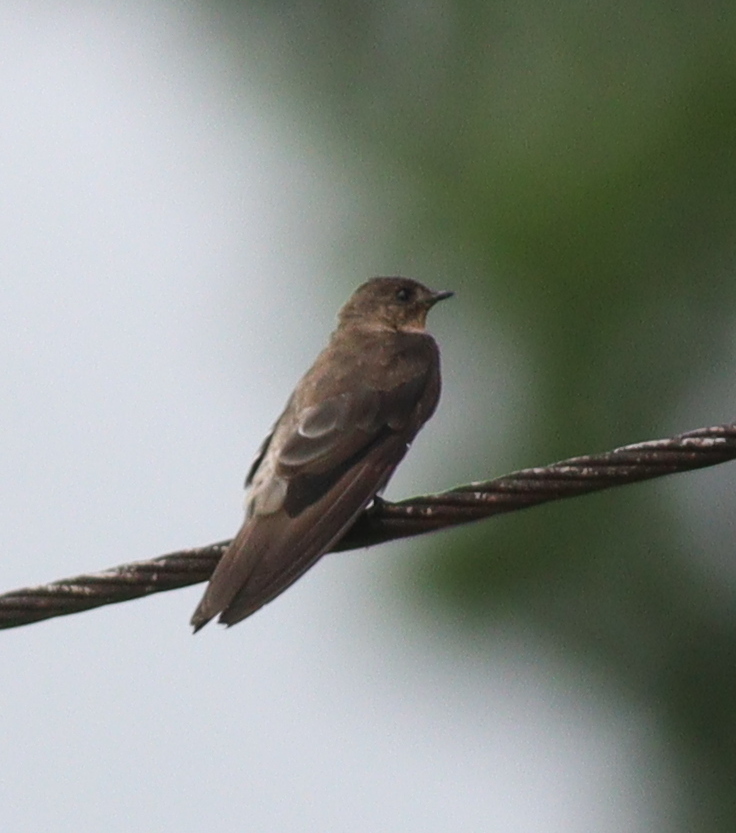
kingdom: Animalia
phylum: Chordata
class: Aves
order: Passeriformes
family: Hirundinidae
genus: Stelgidopteryx
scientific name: Stelgidopteryx ruficollis
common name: Southern rough-winged swallow
